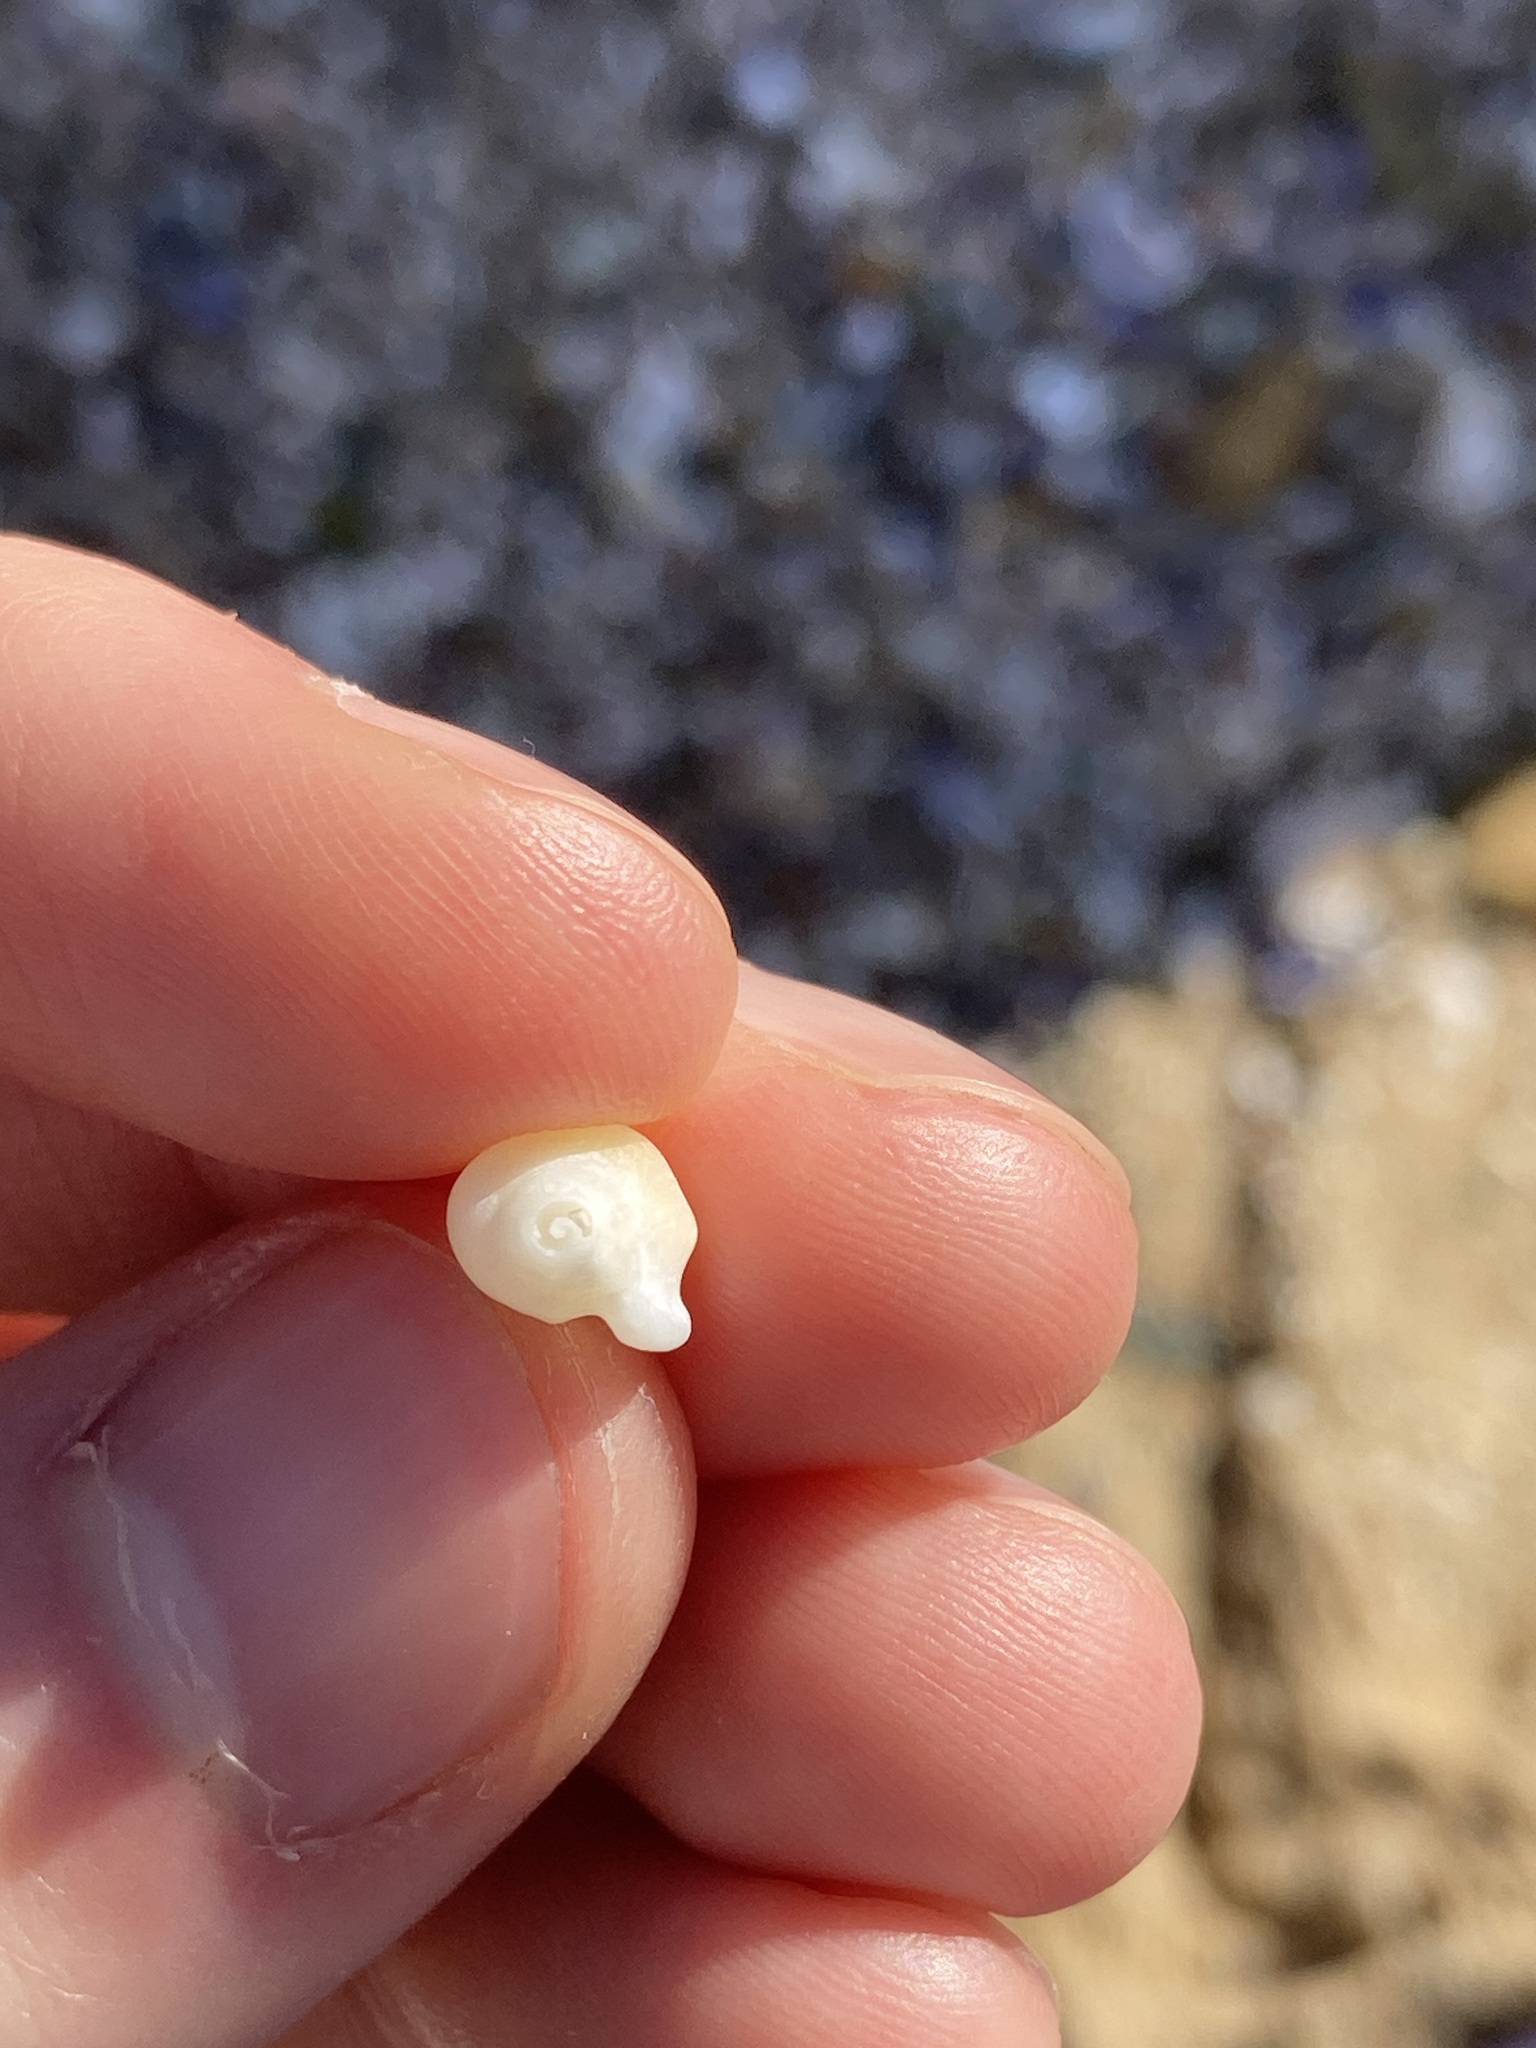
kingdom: Animalia
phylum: Mollusca
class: Gastropoda
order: Neogastropoda
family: Marginellidae
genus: Austroginella
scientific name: Austroginella muscaria
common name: Fly marginella
